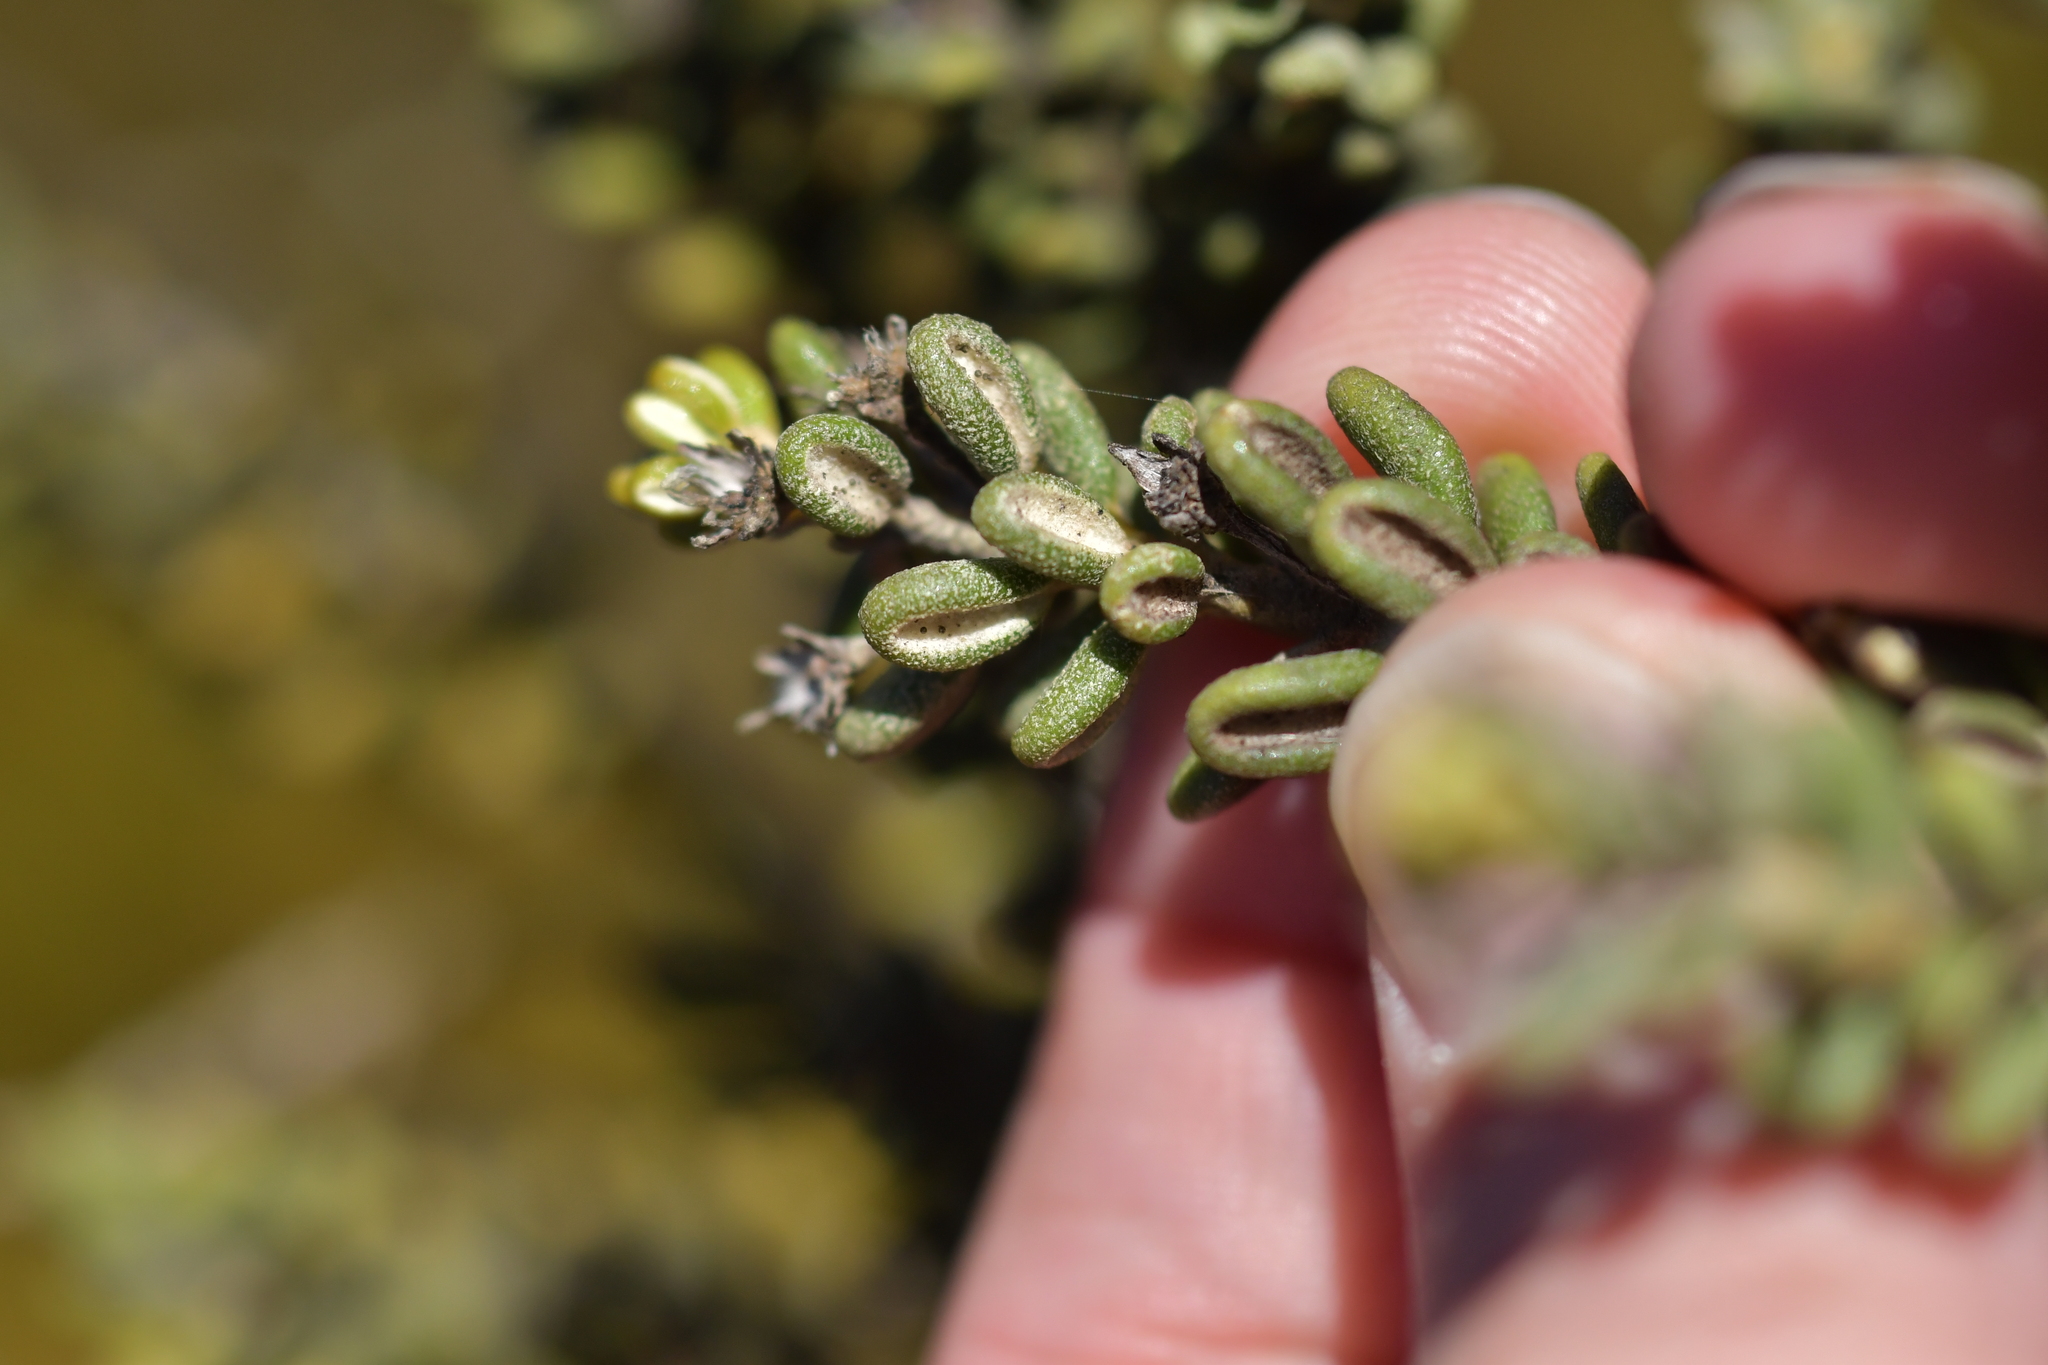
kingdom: Plantae
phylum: Tracheophyta
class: Magnoliopsida
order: Asterales
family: Asteraceae
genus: Olearia
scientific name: Olearia cymbifolia
